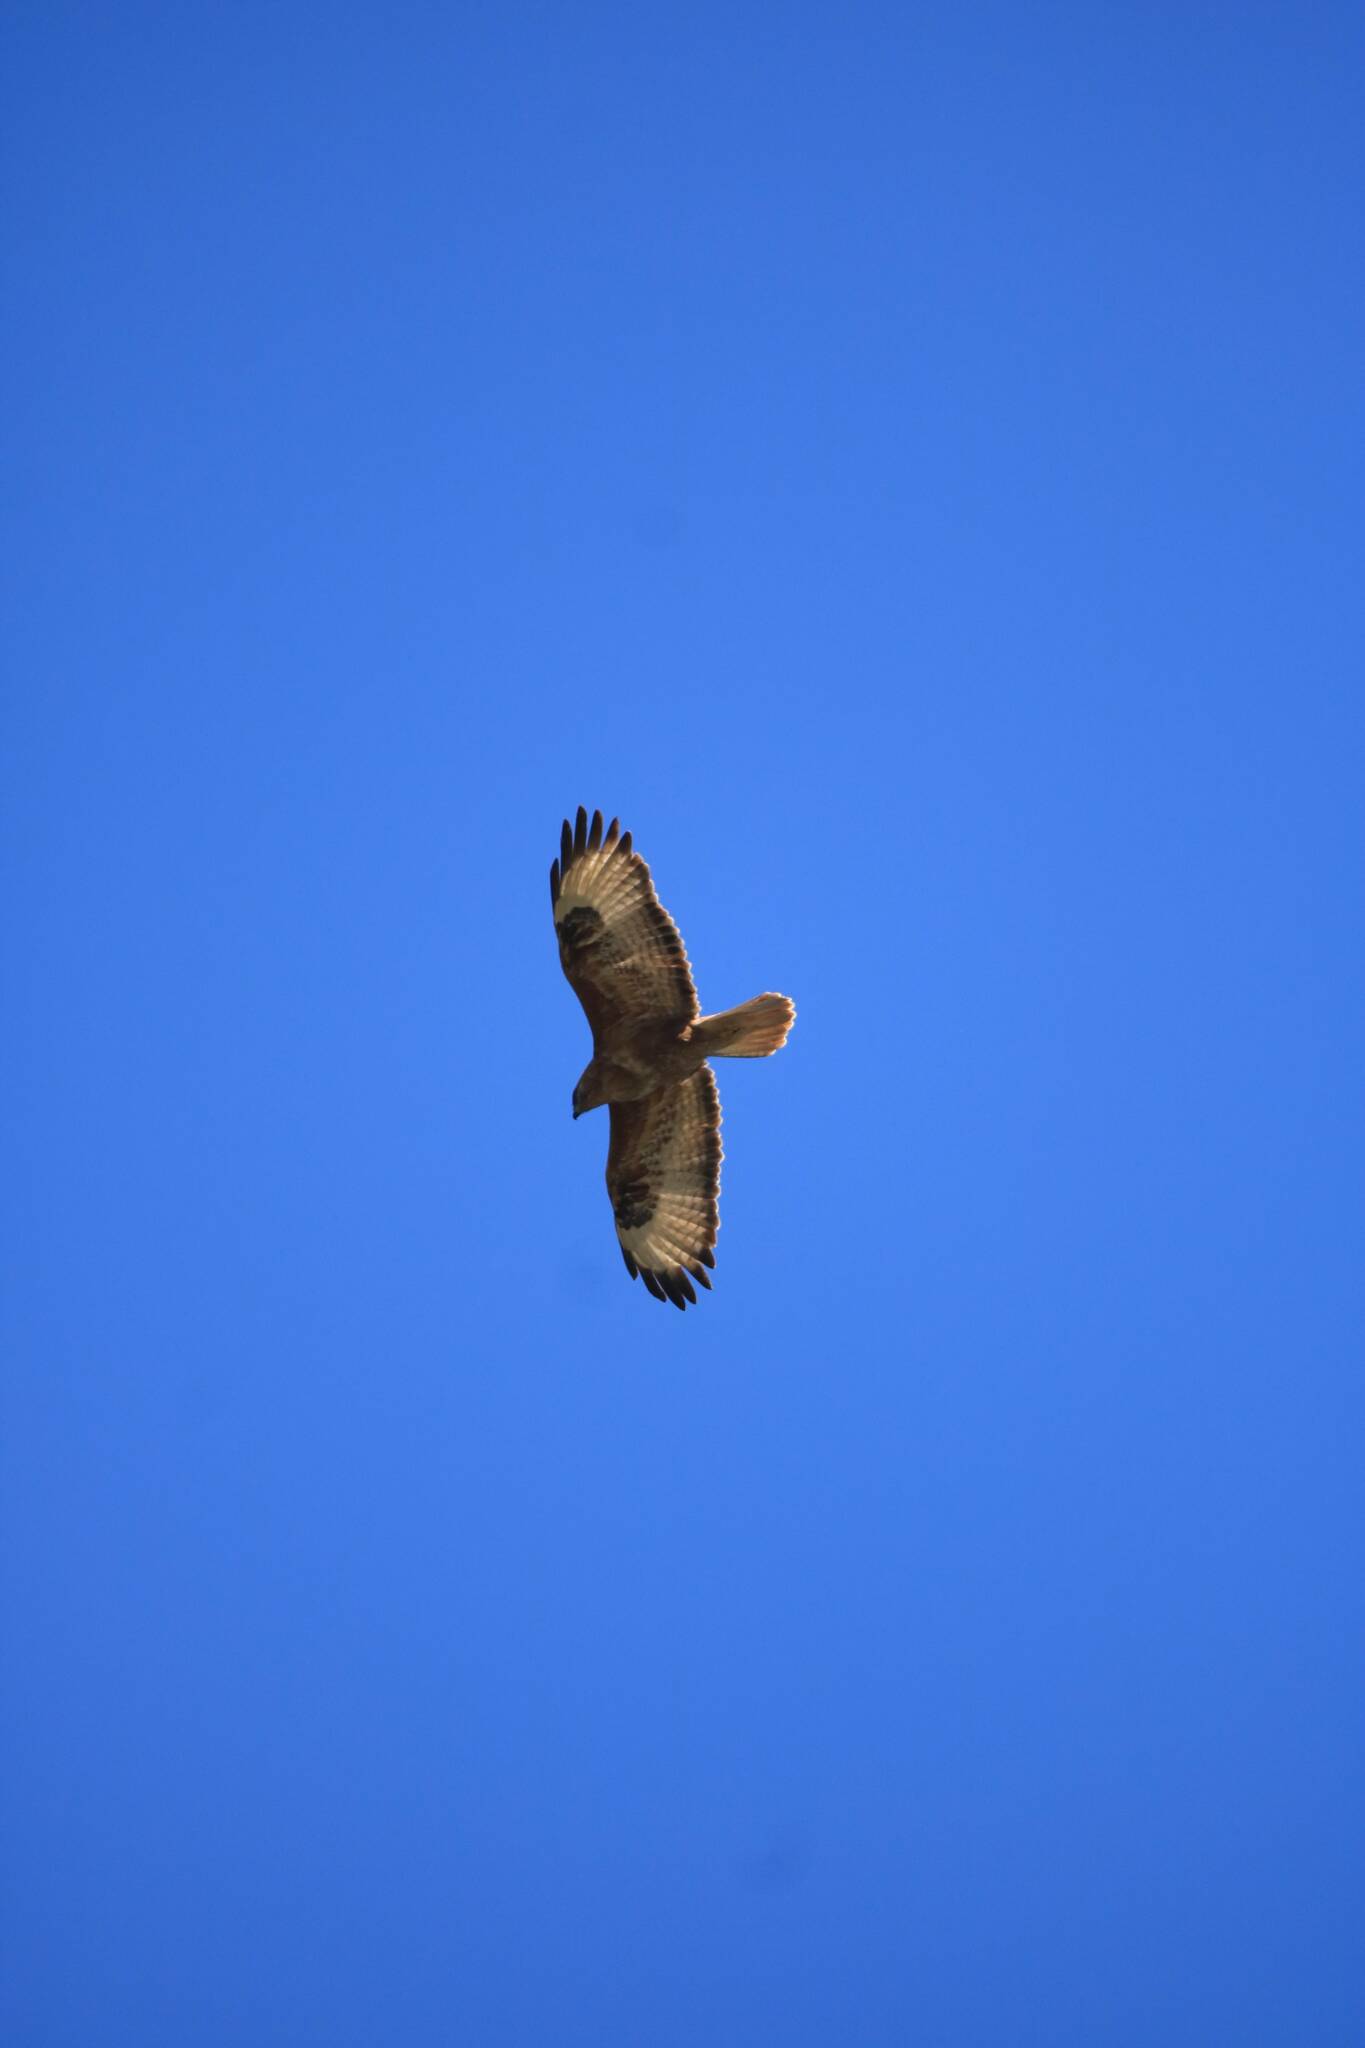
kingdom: Animalia
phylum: Chordata
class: Aves
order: Accipitriformes
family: Accipitridae
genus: Buteo
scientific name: Buteo rufinus
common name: Long-legged buzzard
